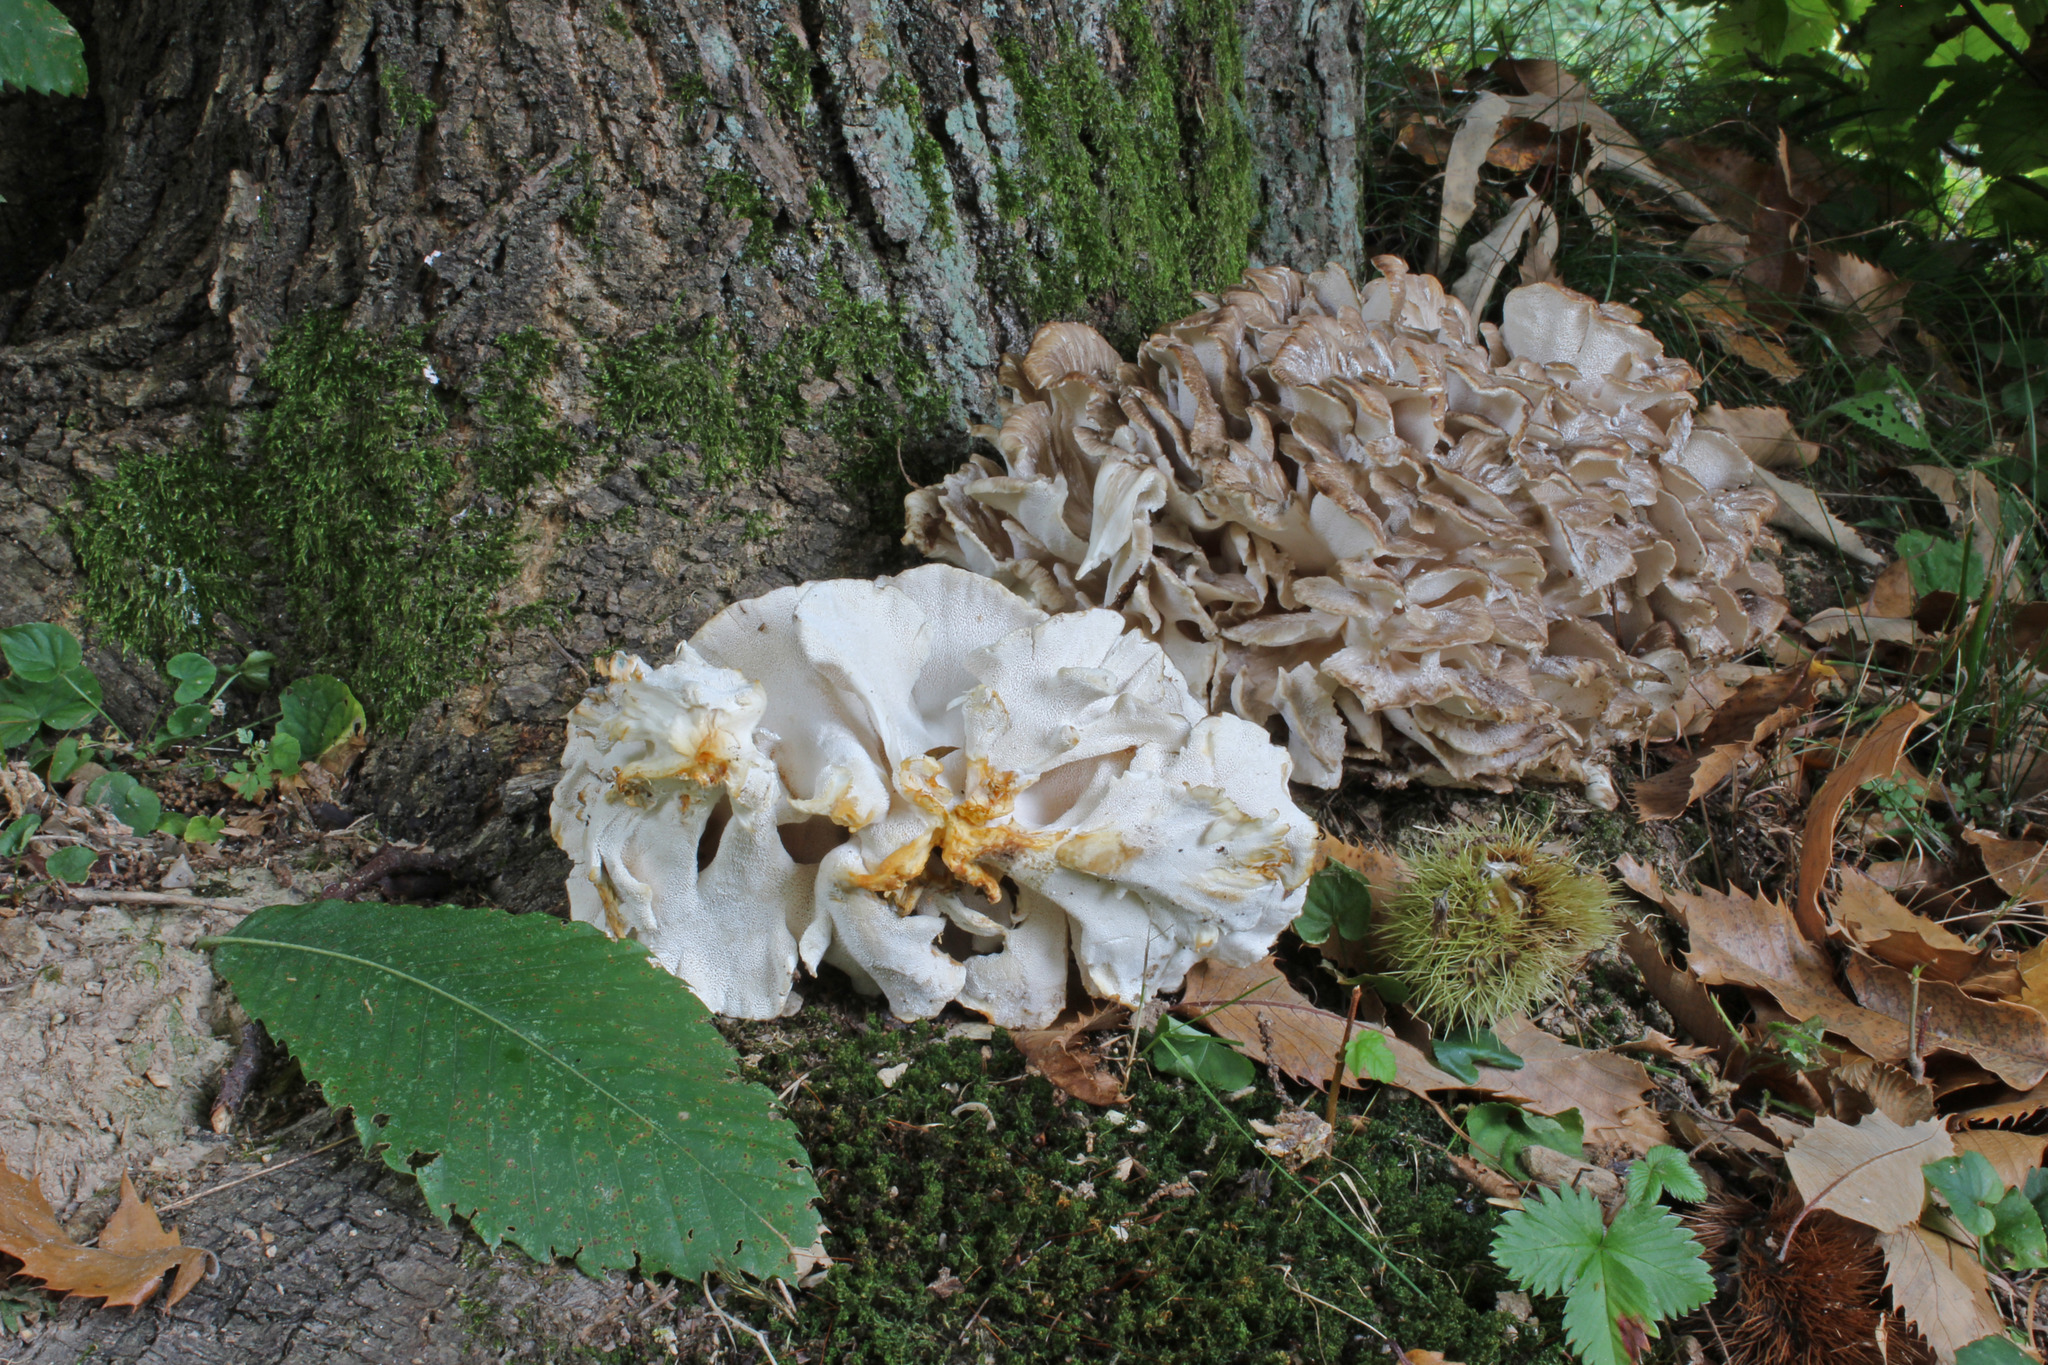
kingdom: Fungi
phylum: Basidiomycota
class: Agaricomycetes
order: Polyporales
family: Grifolaceae
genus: Grifola
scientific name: Grifola frondosa
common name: Hen of the woods
